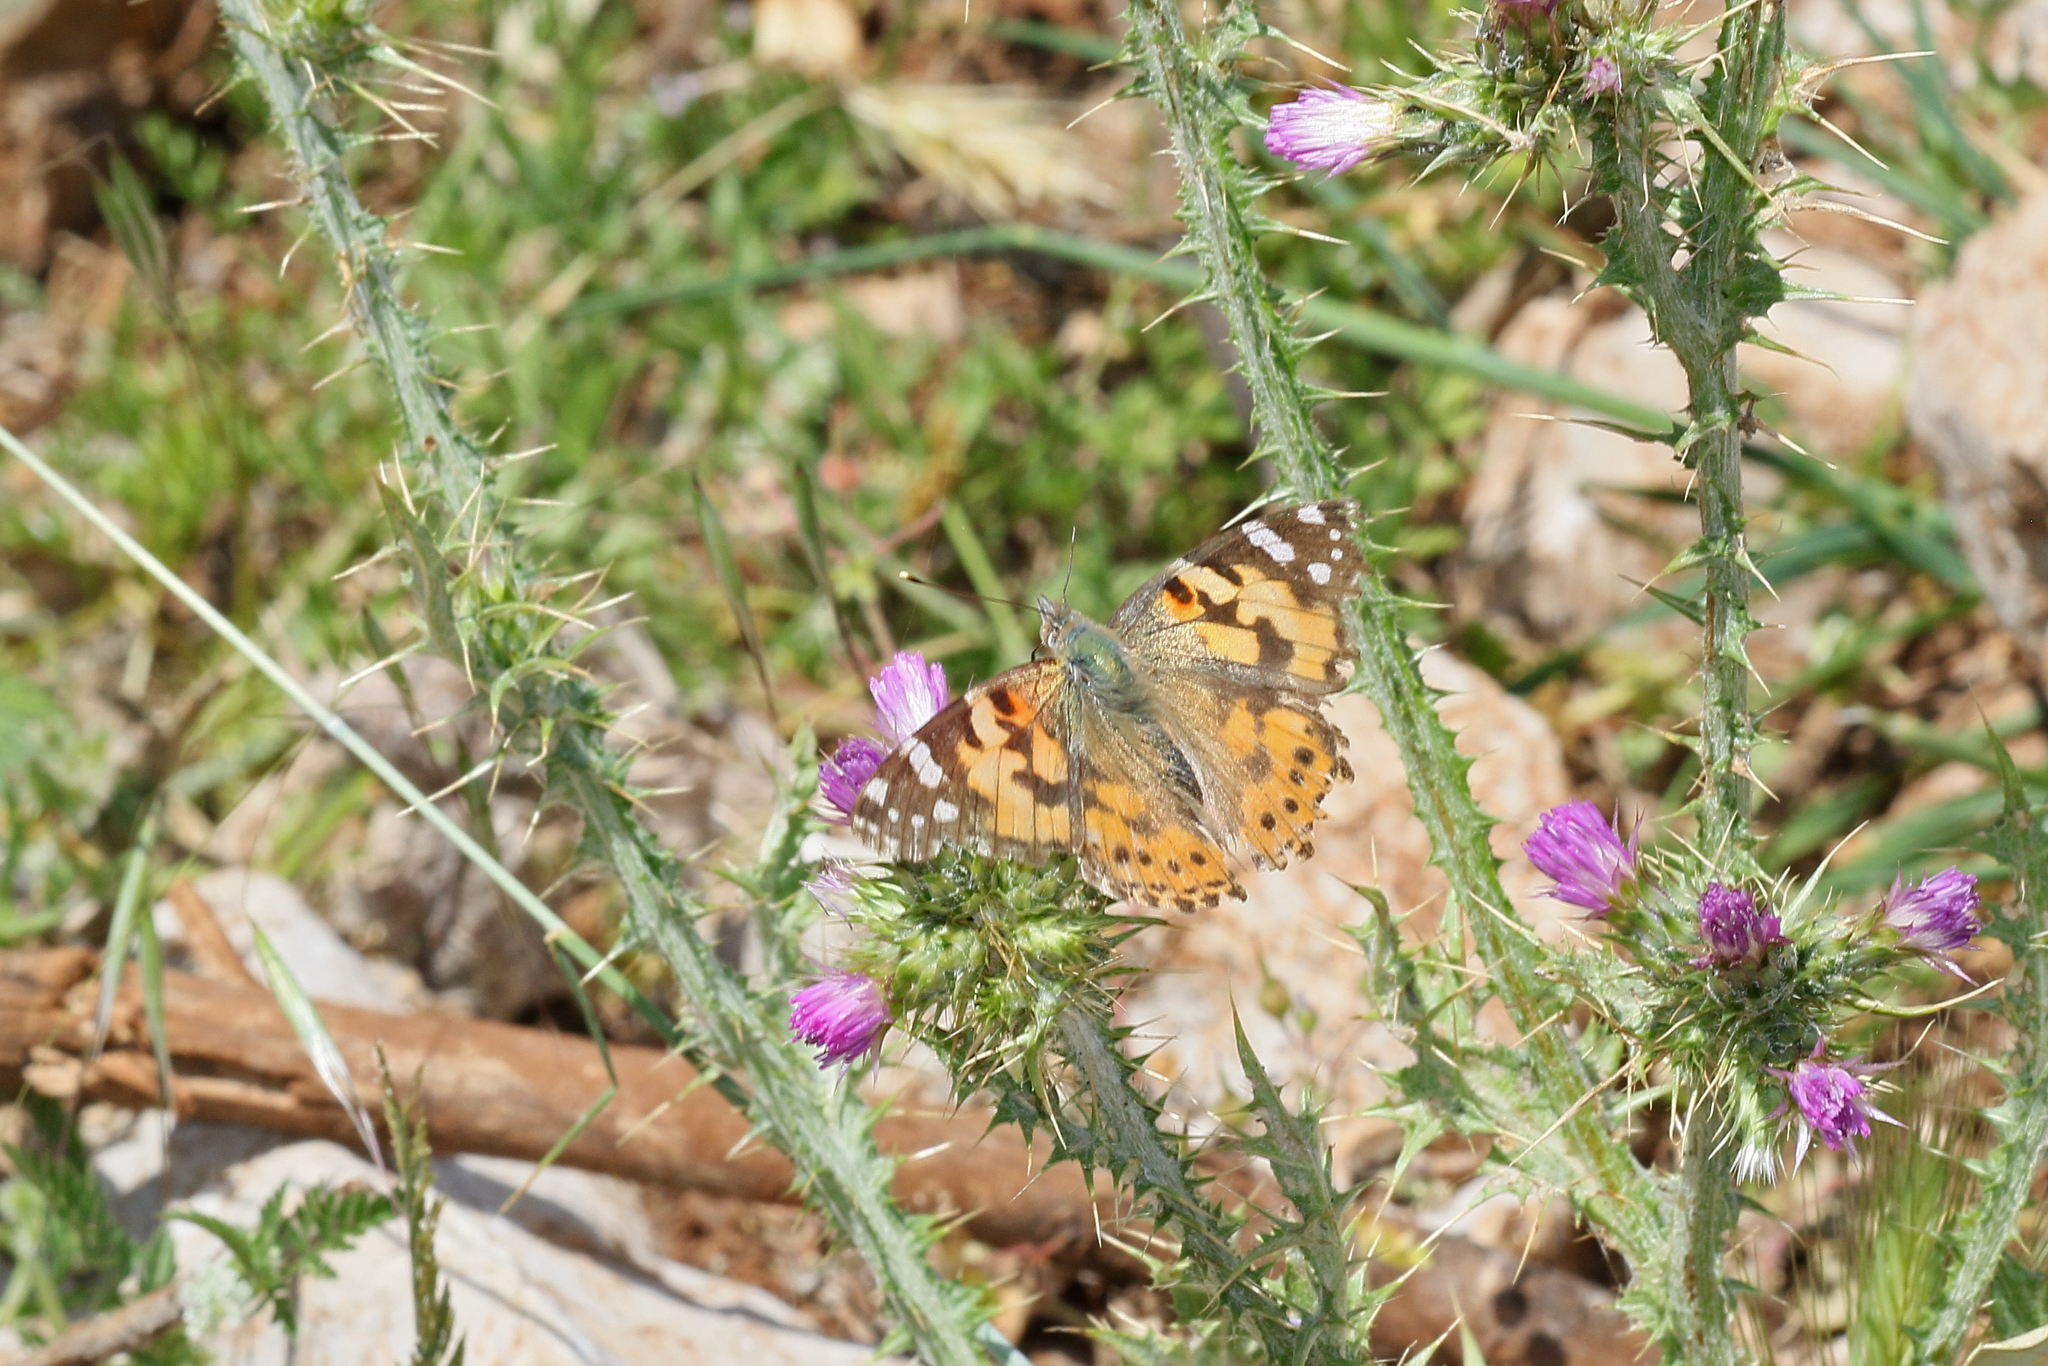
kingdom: Animalia
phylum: Arthropoda
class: Insecta
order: Lepidoptera
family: Nymphalidae
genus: Vanessa
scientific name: Vanessa cardui
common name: Painted lady
